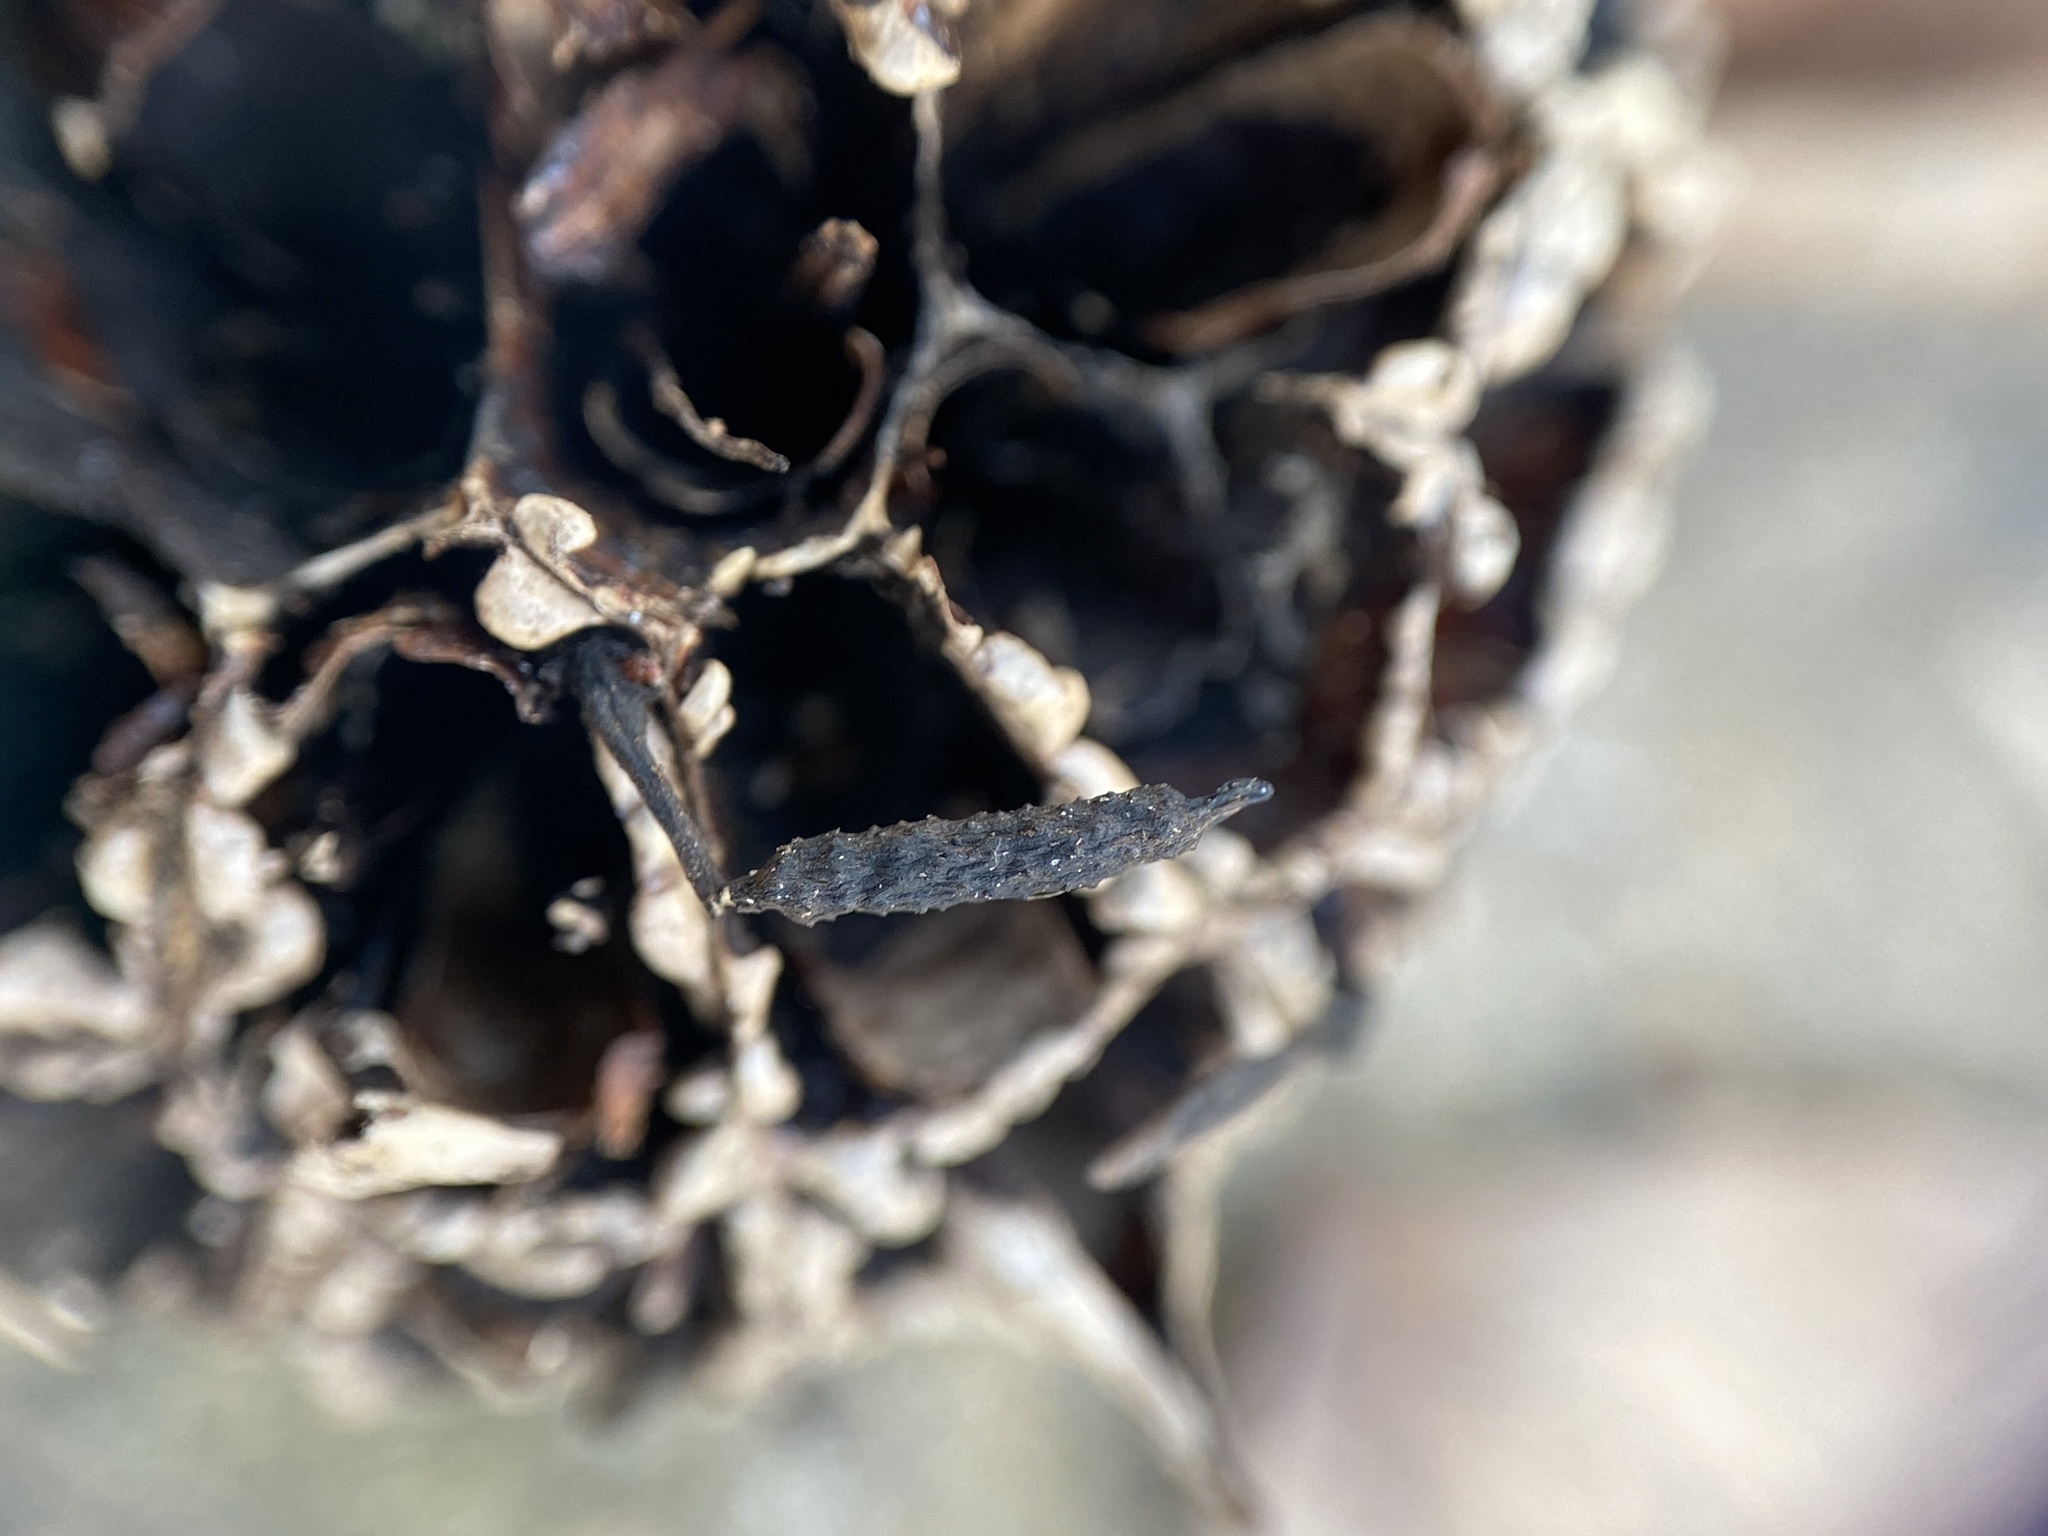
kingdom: Fungi
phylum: Ascomycota
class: Sordariomycetes
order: Xylariales
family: Xylariaceae
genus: Xylaria
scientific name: Xylaria liquidambaris
